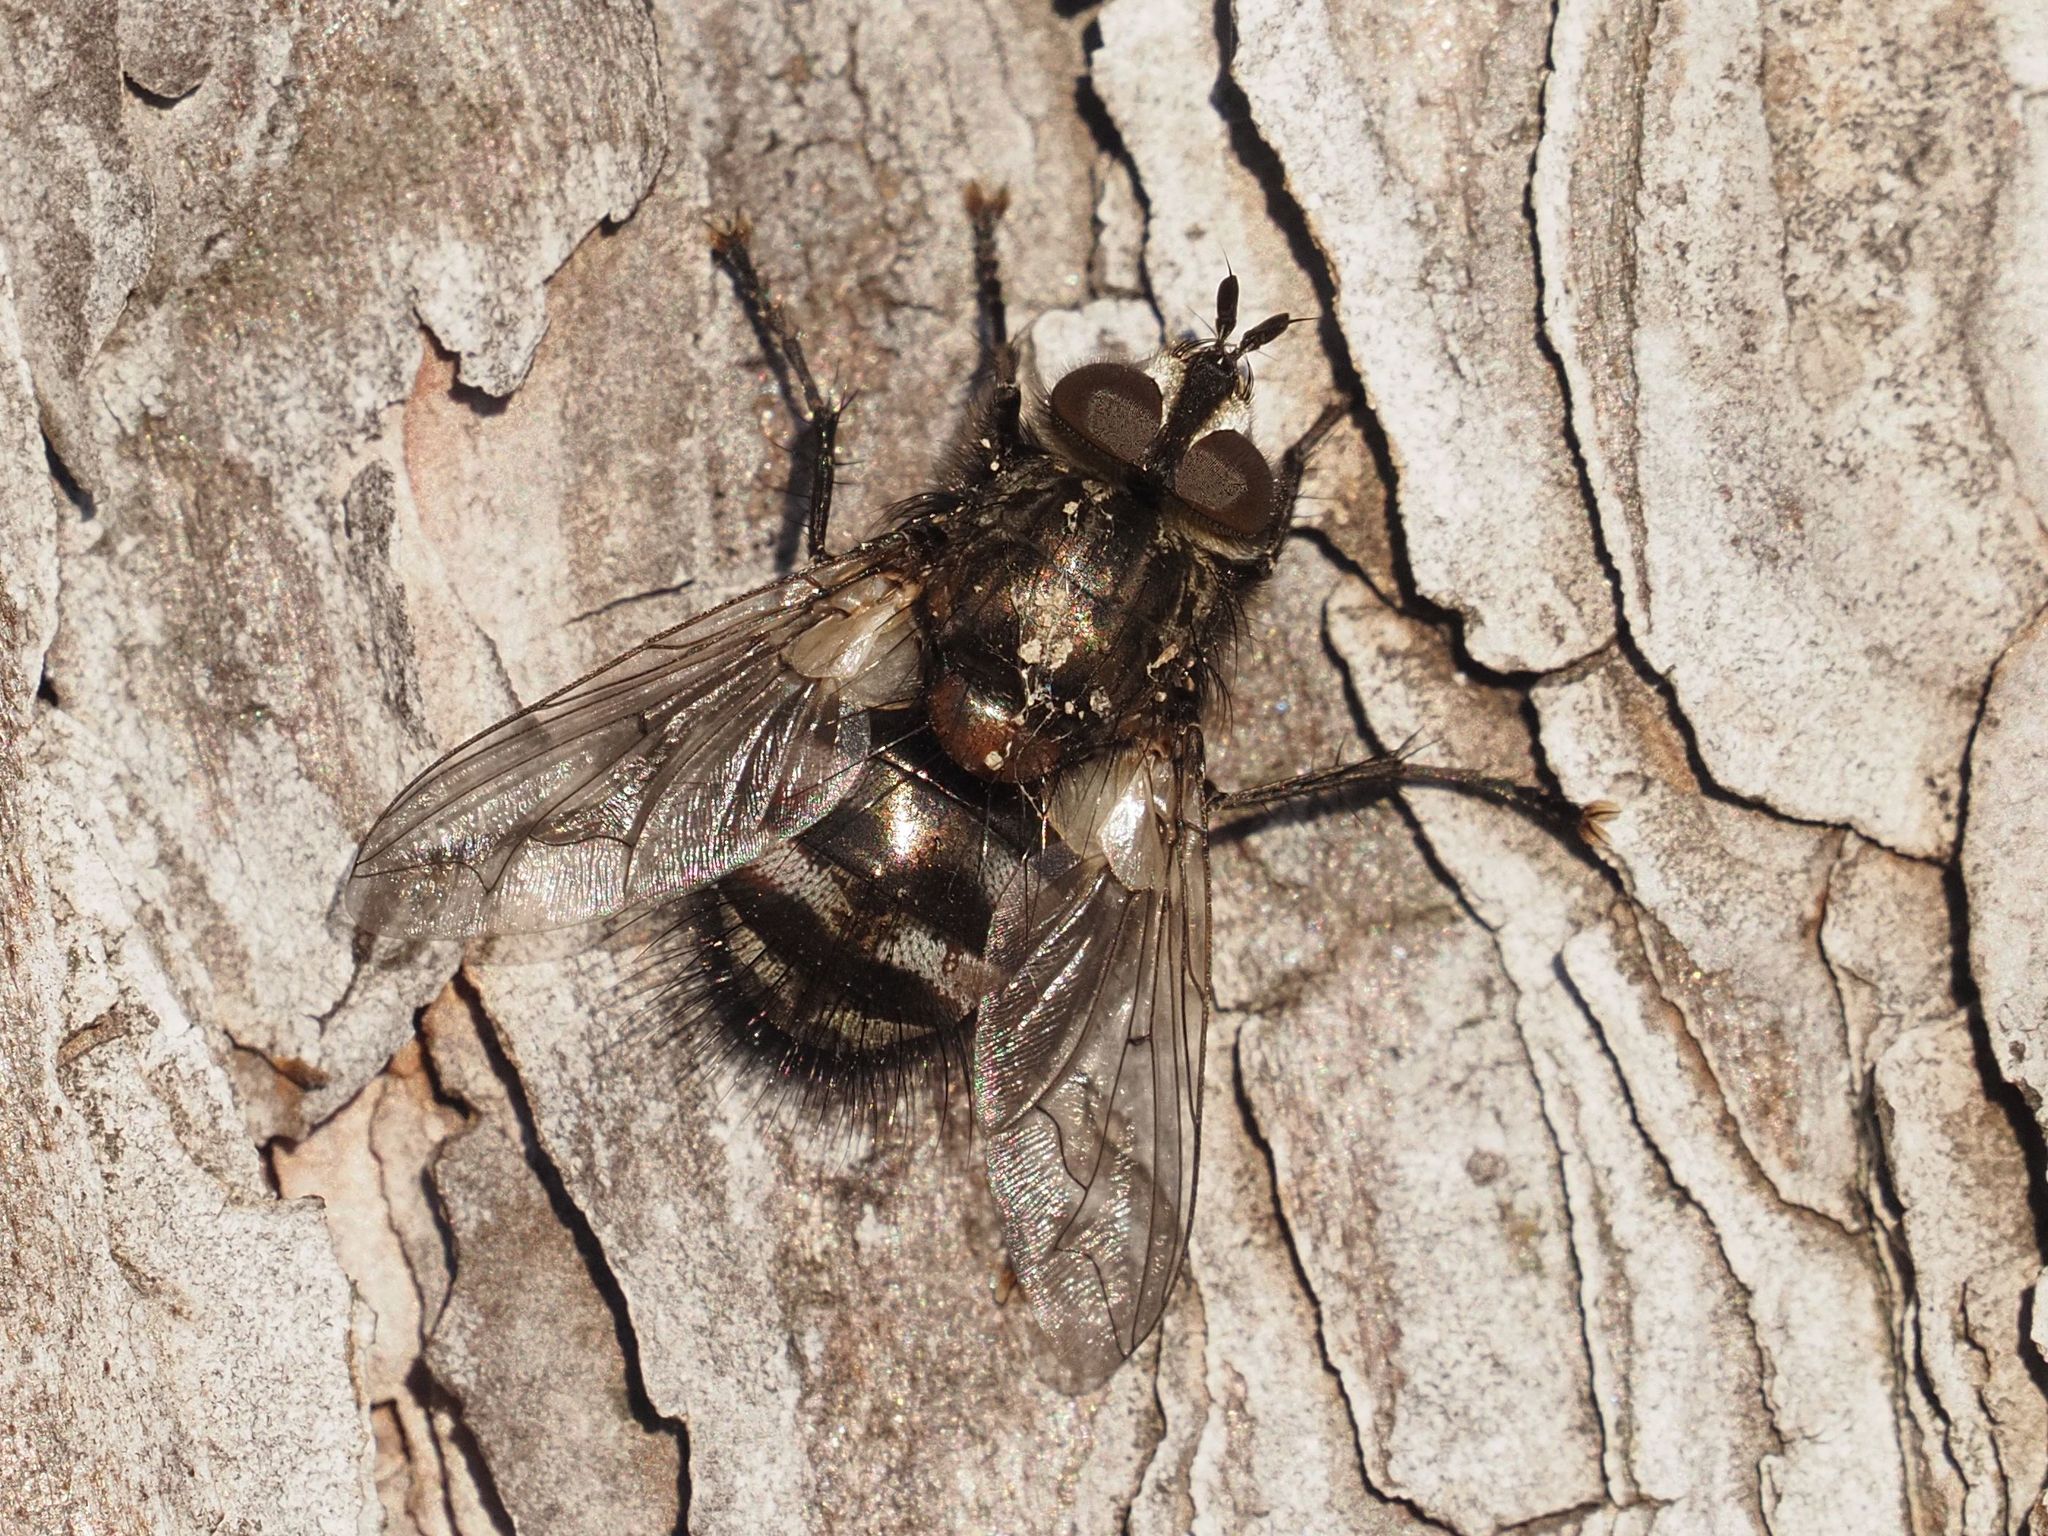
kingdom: Animalia
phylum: Arthropoda
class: Insecta
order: Diptera
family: Tachinidae
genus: Panzeria
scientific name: Panzeria puparum
